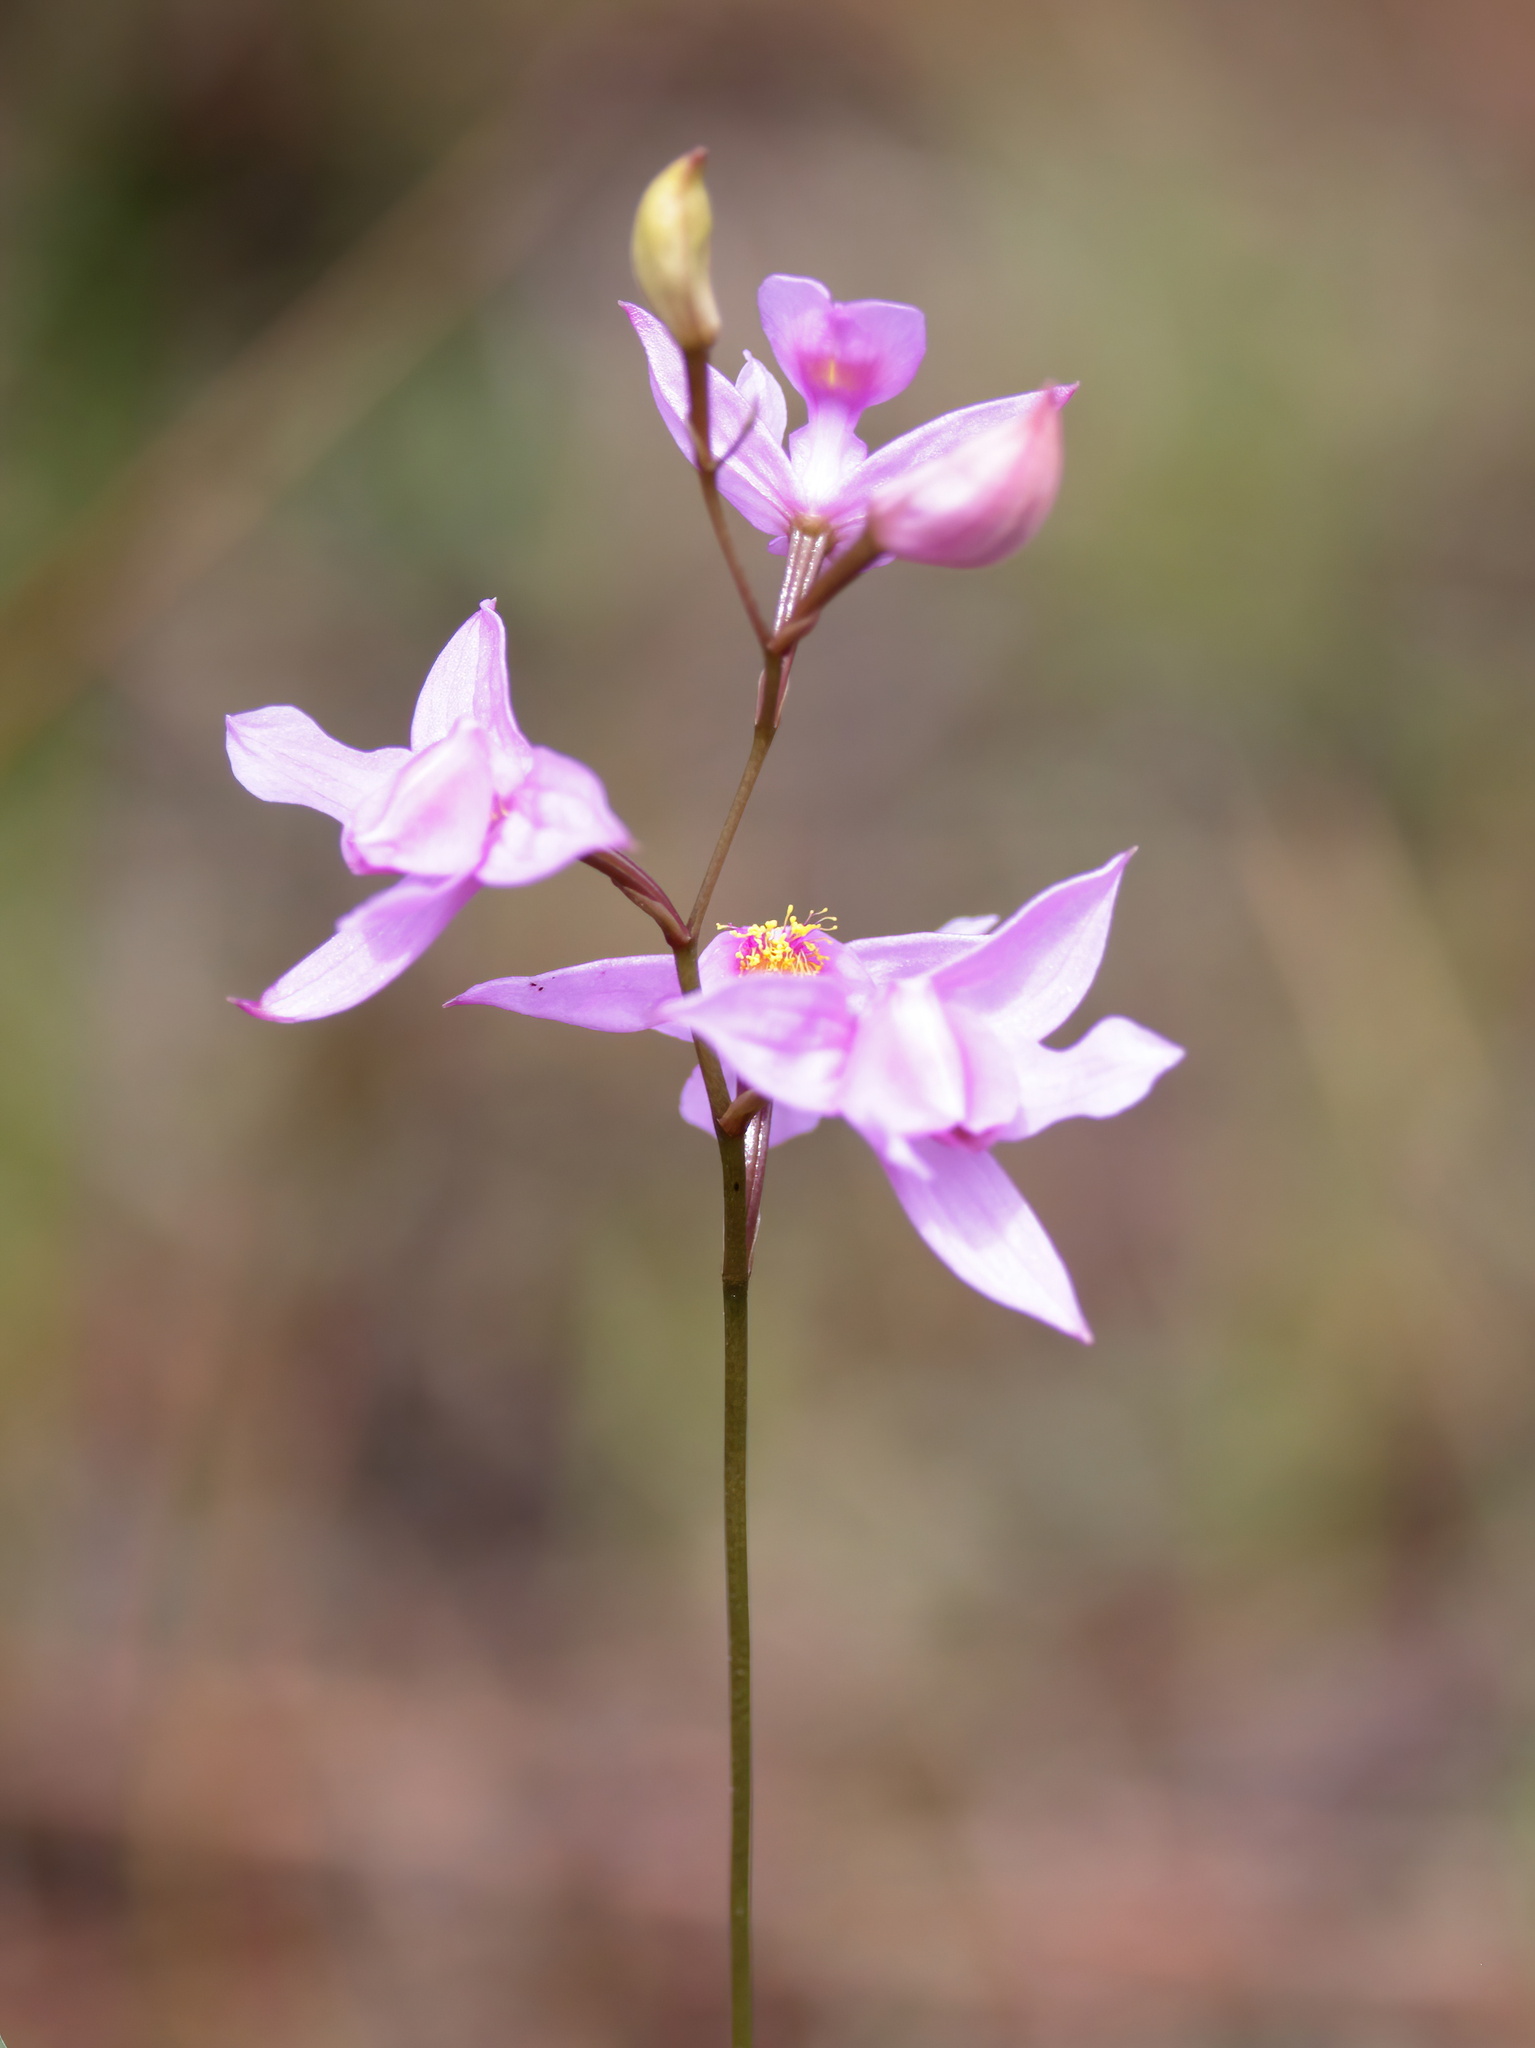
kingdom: Plantae
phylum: Tracheophyta
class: Liliopsida
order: Asparagales
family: Orchidaceae
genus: Calopogon
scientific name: Calopogon barbatus
